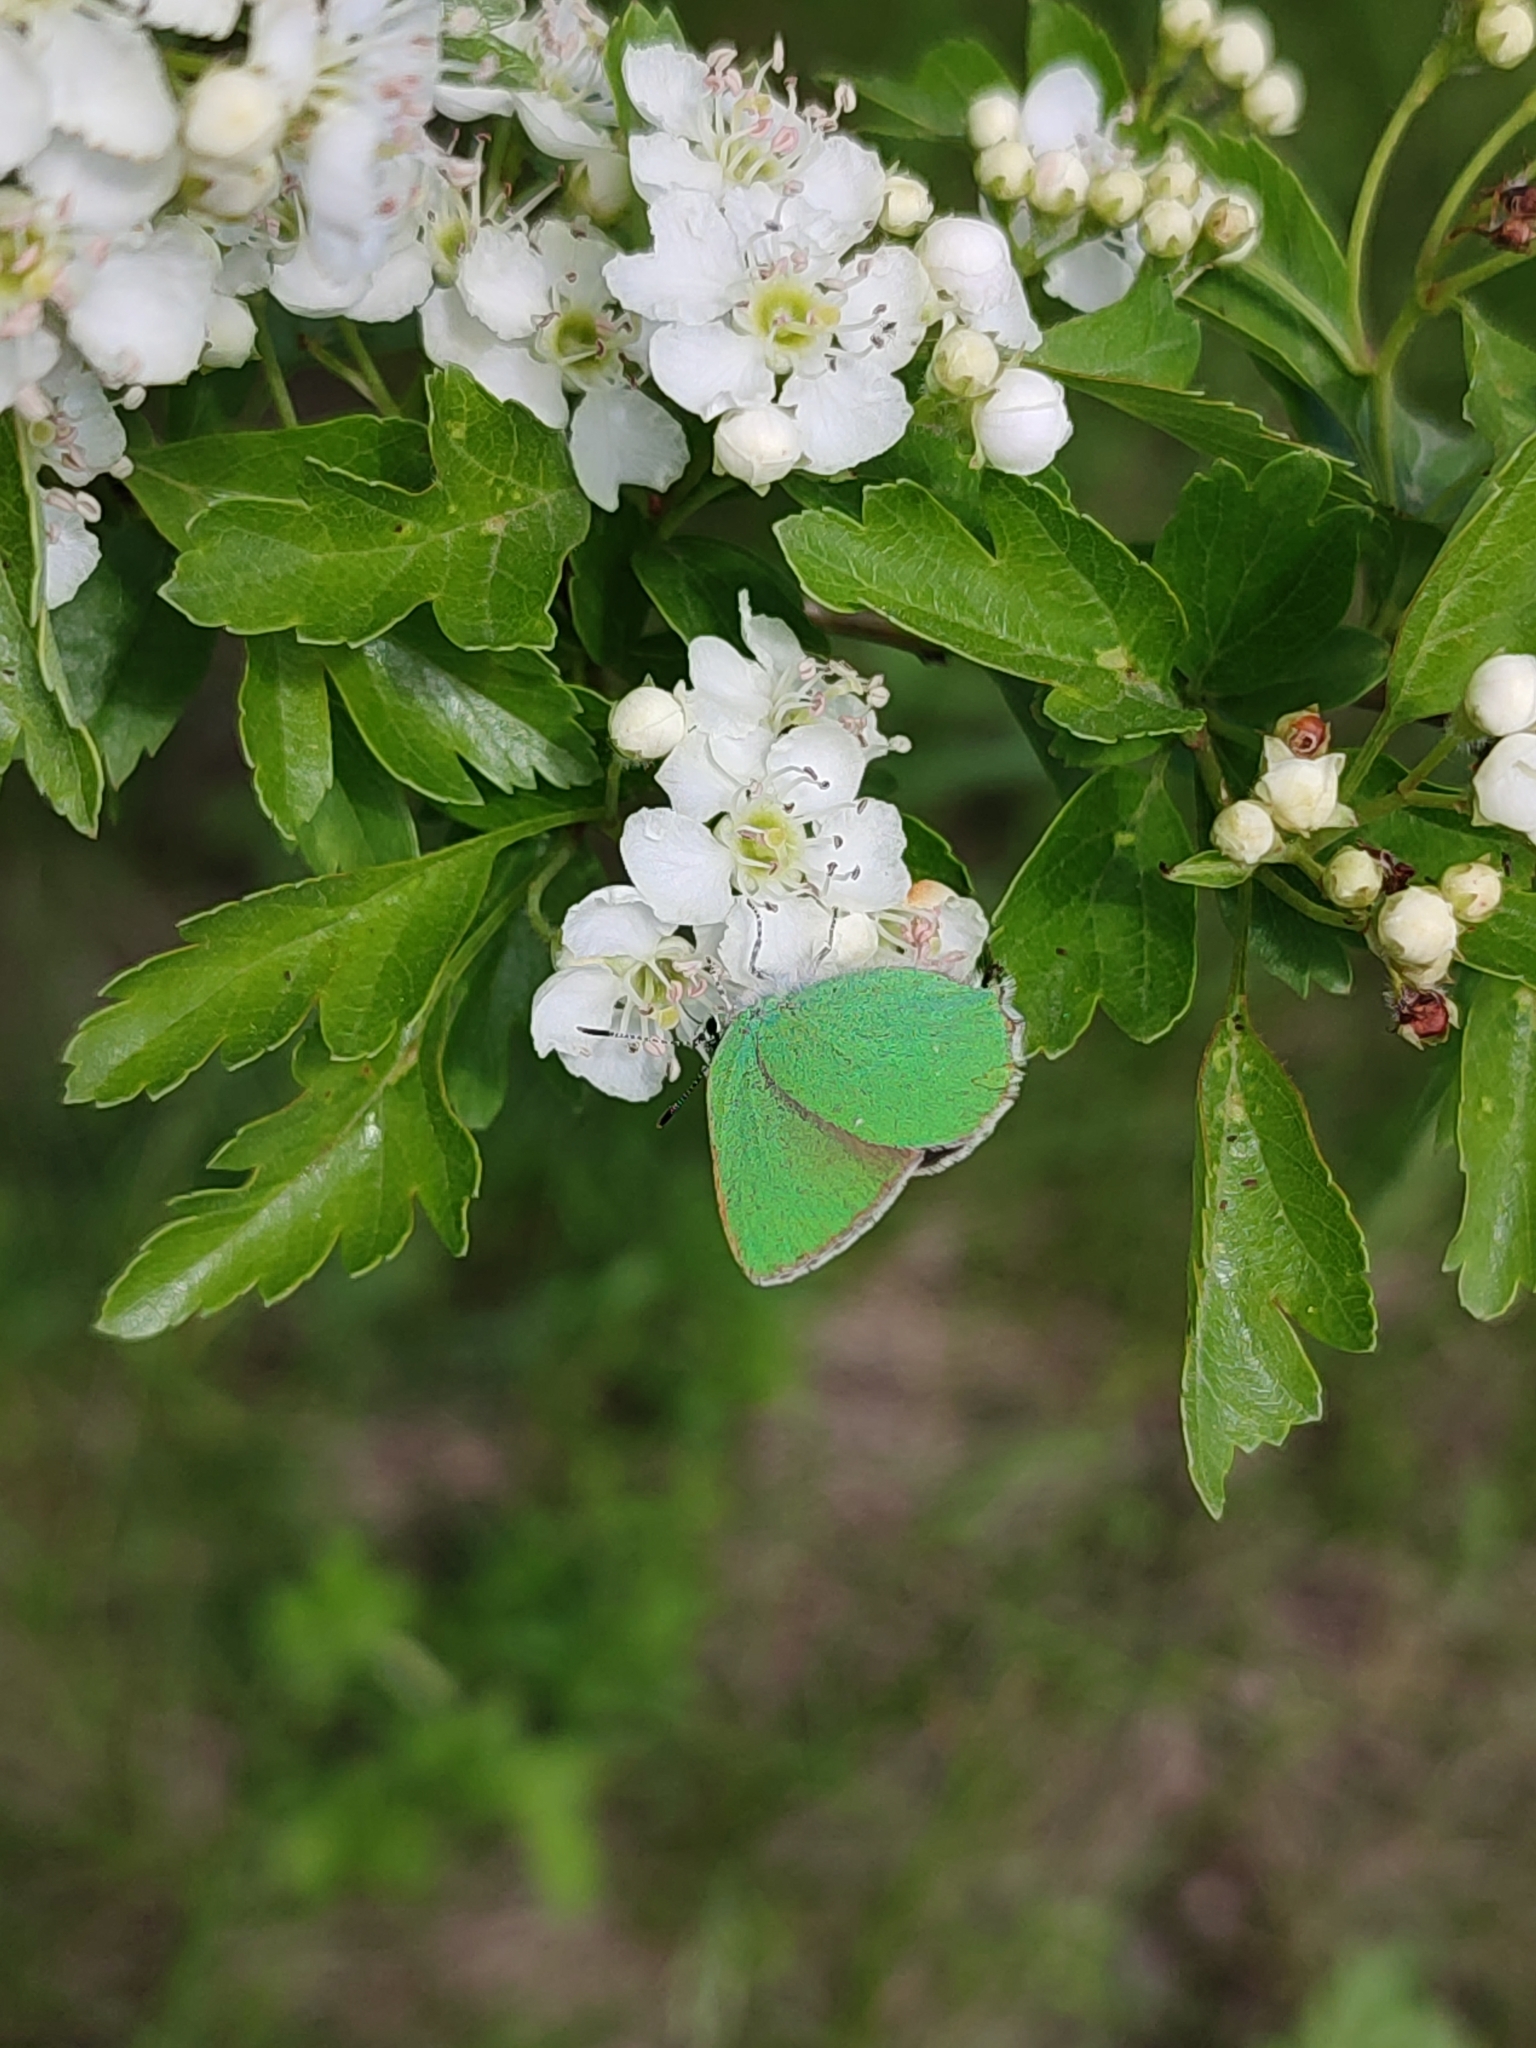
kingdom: Animalia
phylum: Arthropoda
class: Insecta
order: Lepidoptera
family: Lycaenidae
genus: Callophrys
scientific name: Callophrys rubi
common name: Green hairstreak
